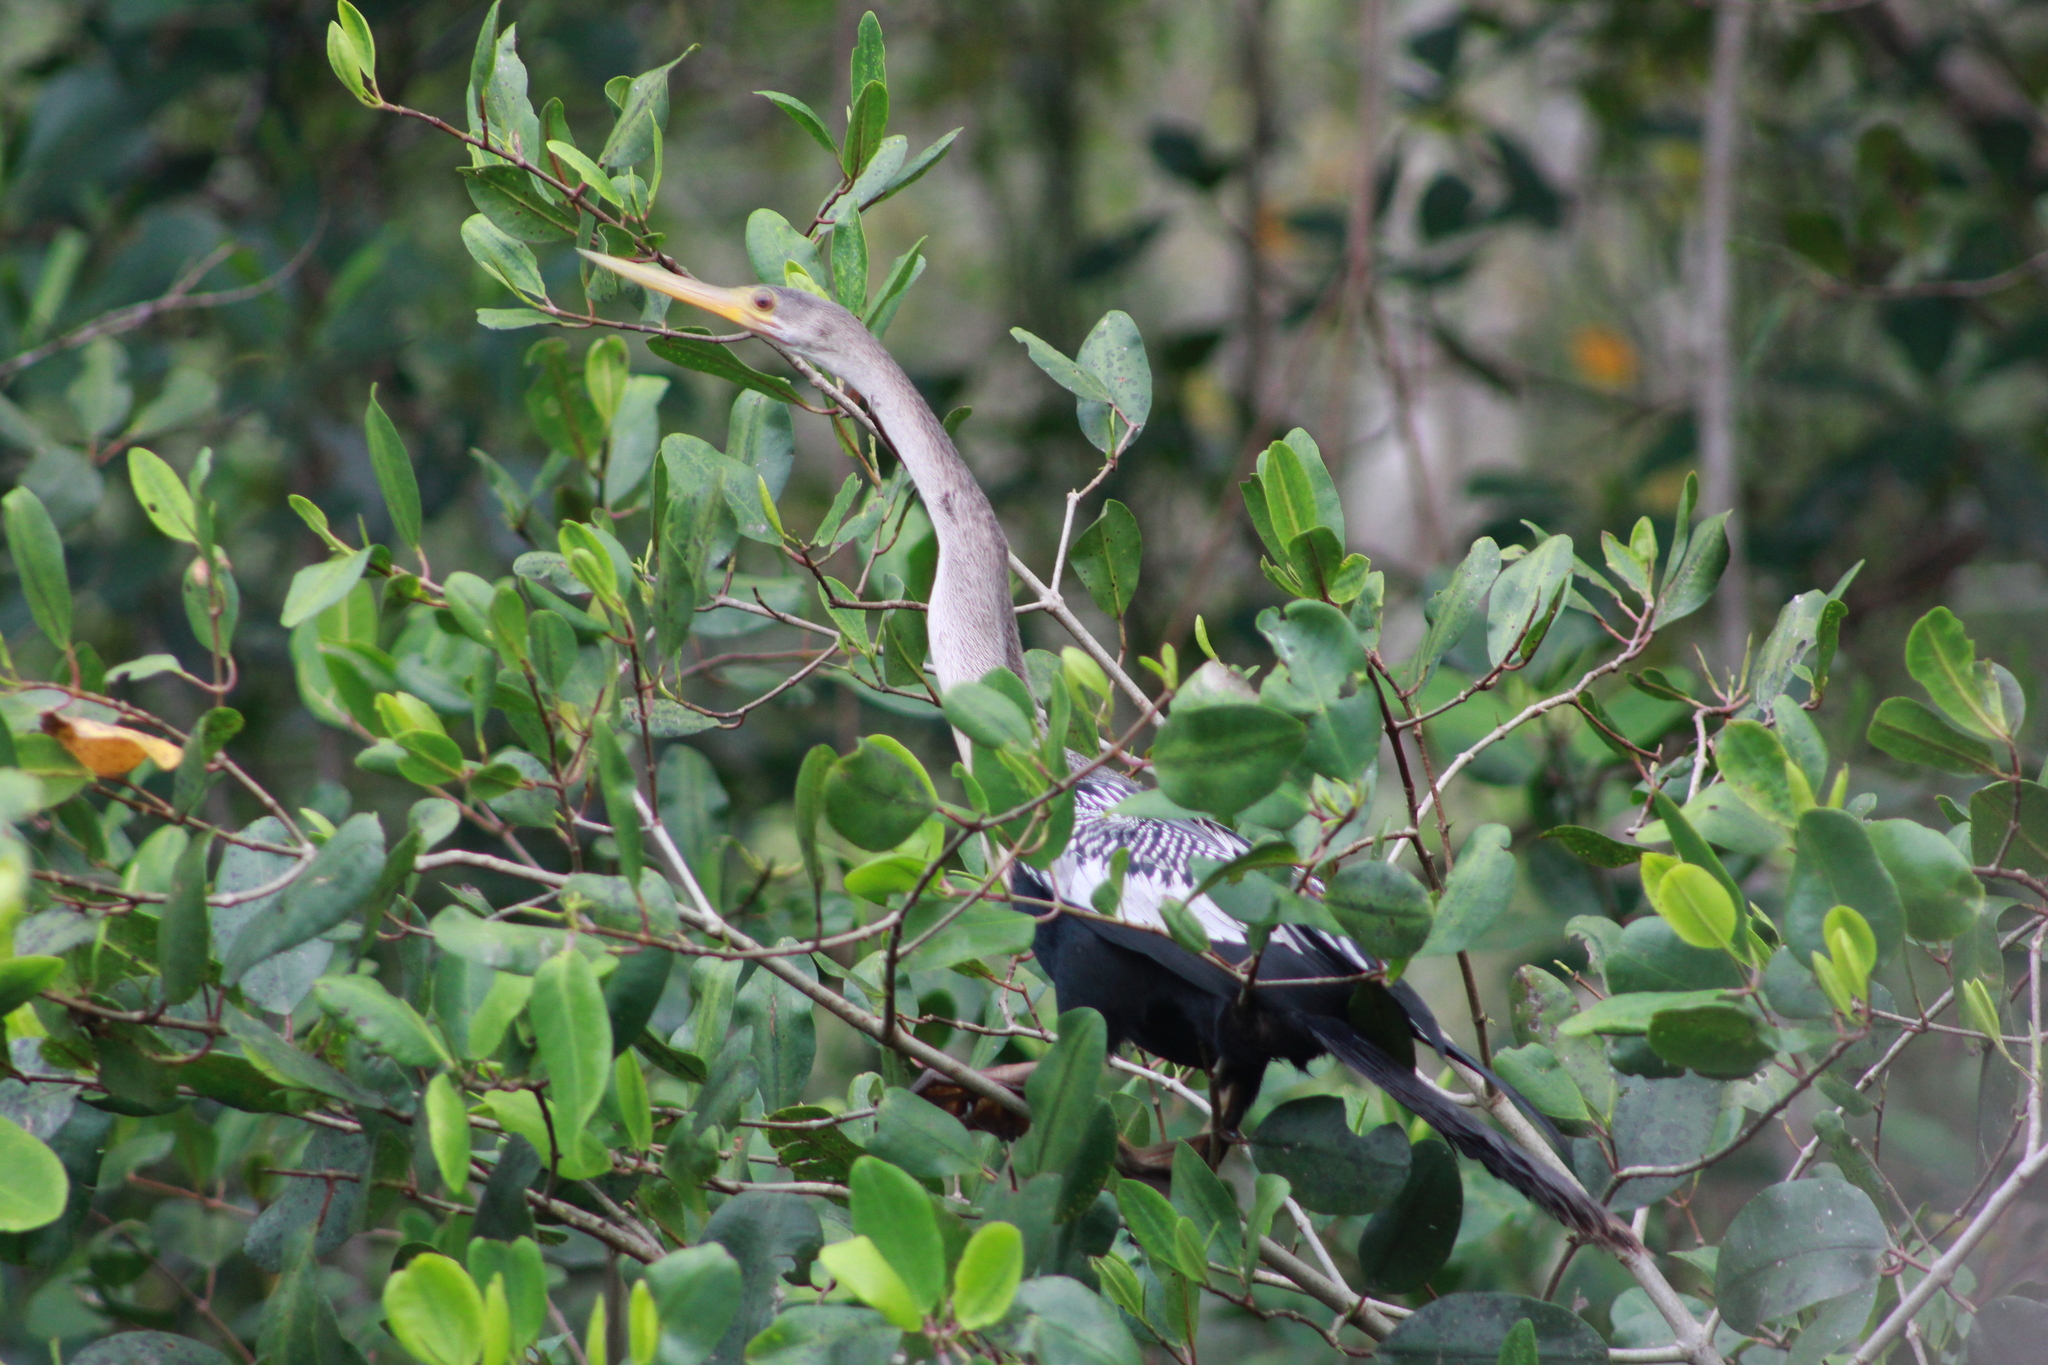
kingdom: Animalia
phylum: Chordata
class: Aves
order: Suliformes
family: Anhingidae
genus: Anhinga
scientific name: Anhinga anhinga
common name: Anhinga
